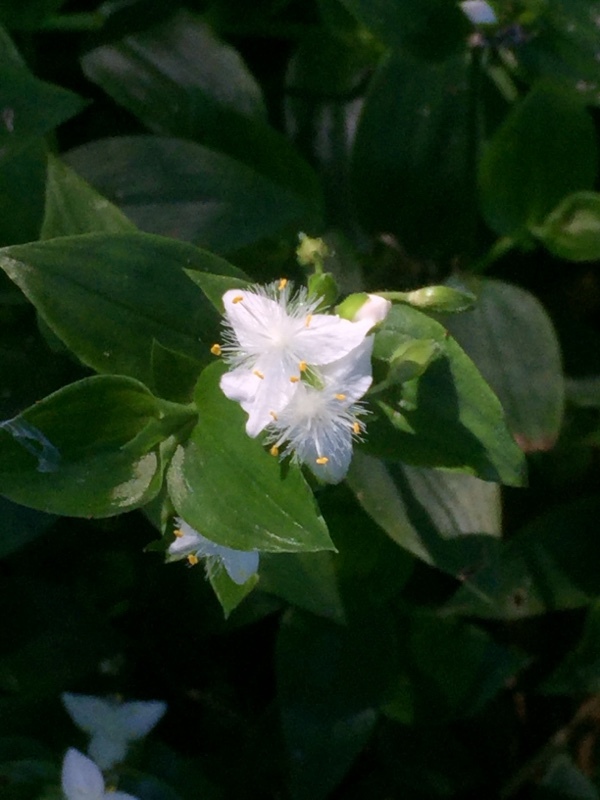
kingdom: Plantae
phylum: Tracheophyta
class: Liliopsida
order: Commelinales
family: Commelinaceae
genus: Tradescantia
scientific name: Tradescantia fluminensis
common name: Wandering-jew
